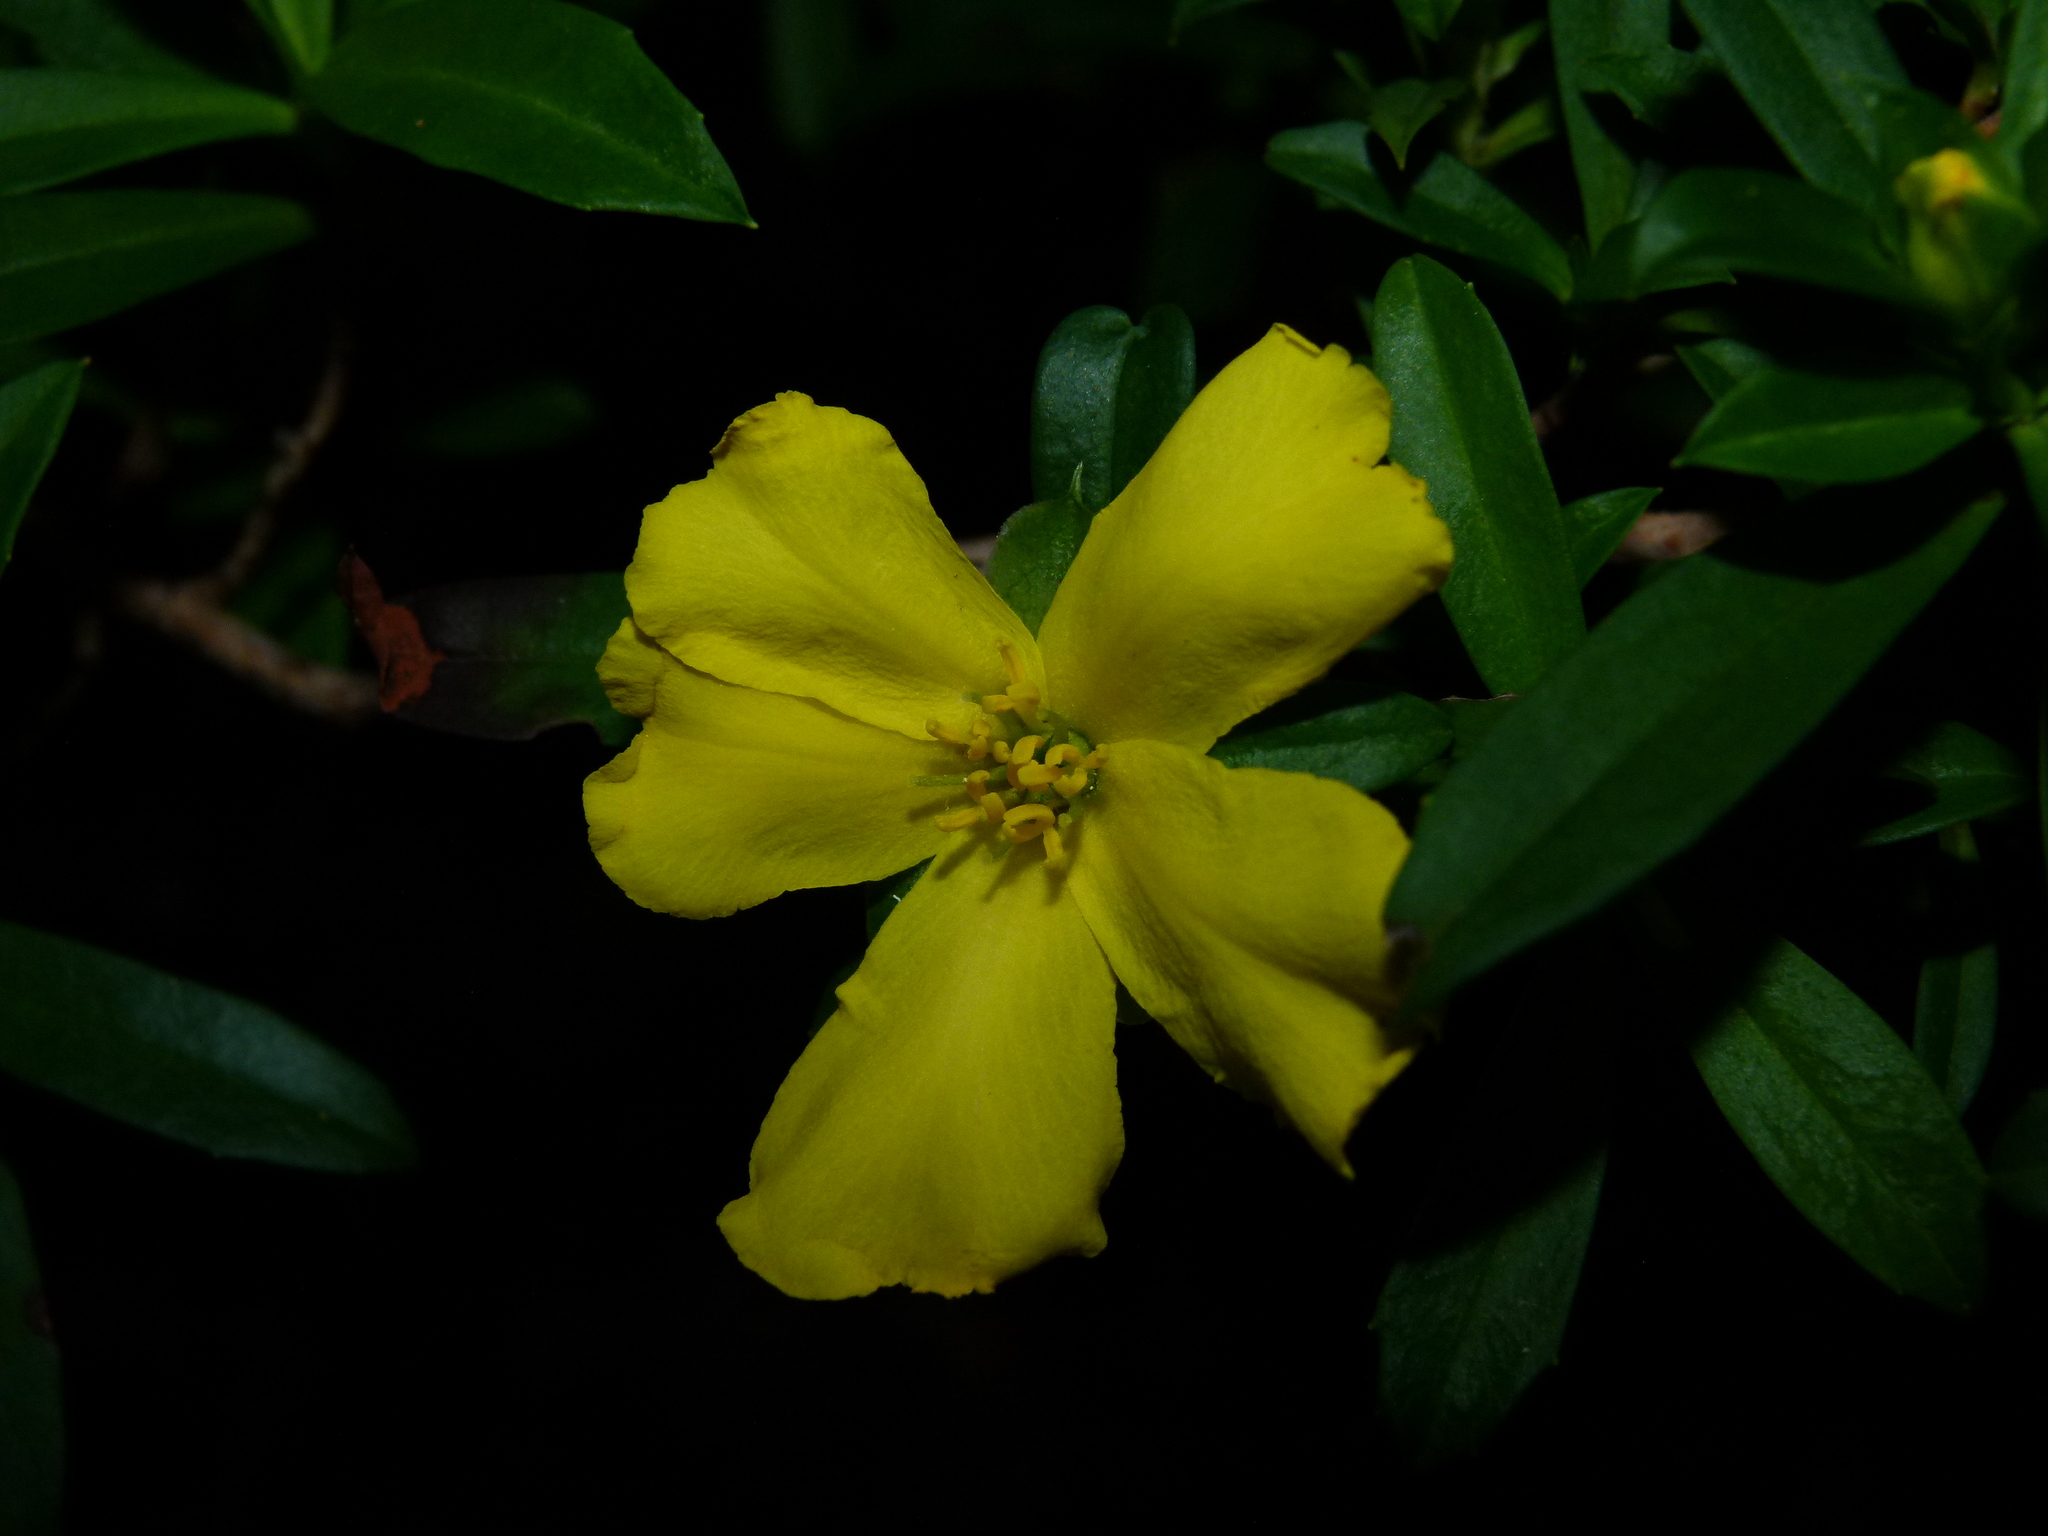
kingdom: Plantae
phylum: Tracheophyta
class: Magnoliopsida
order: Dilleniales
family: Dilleniaceae
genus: Hibbertia
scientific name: Hibbertia cuneiformis
